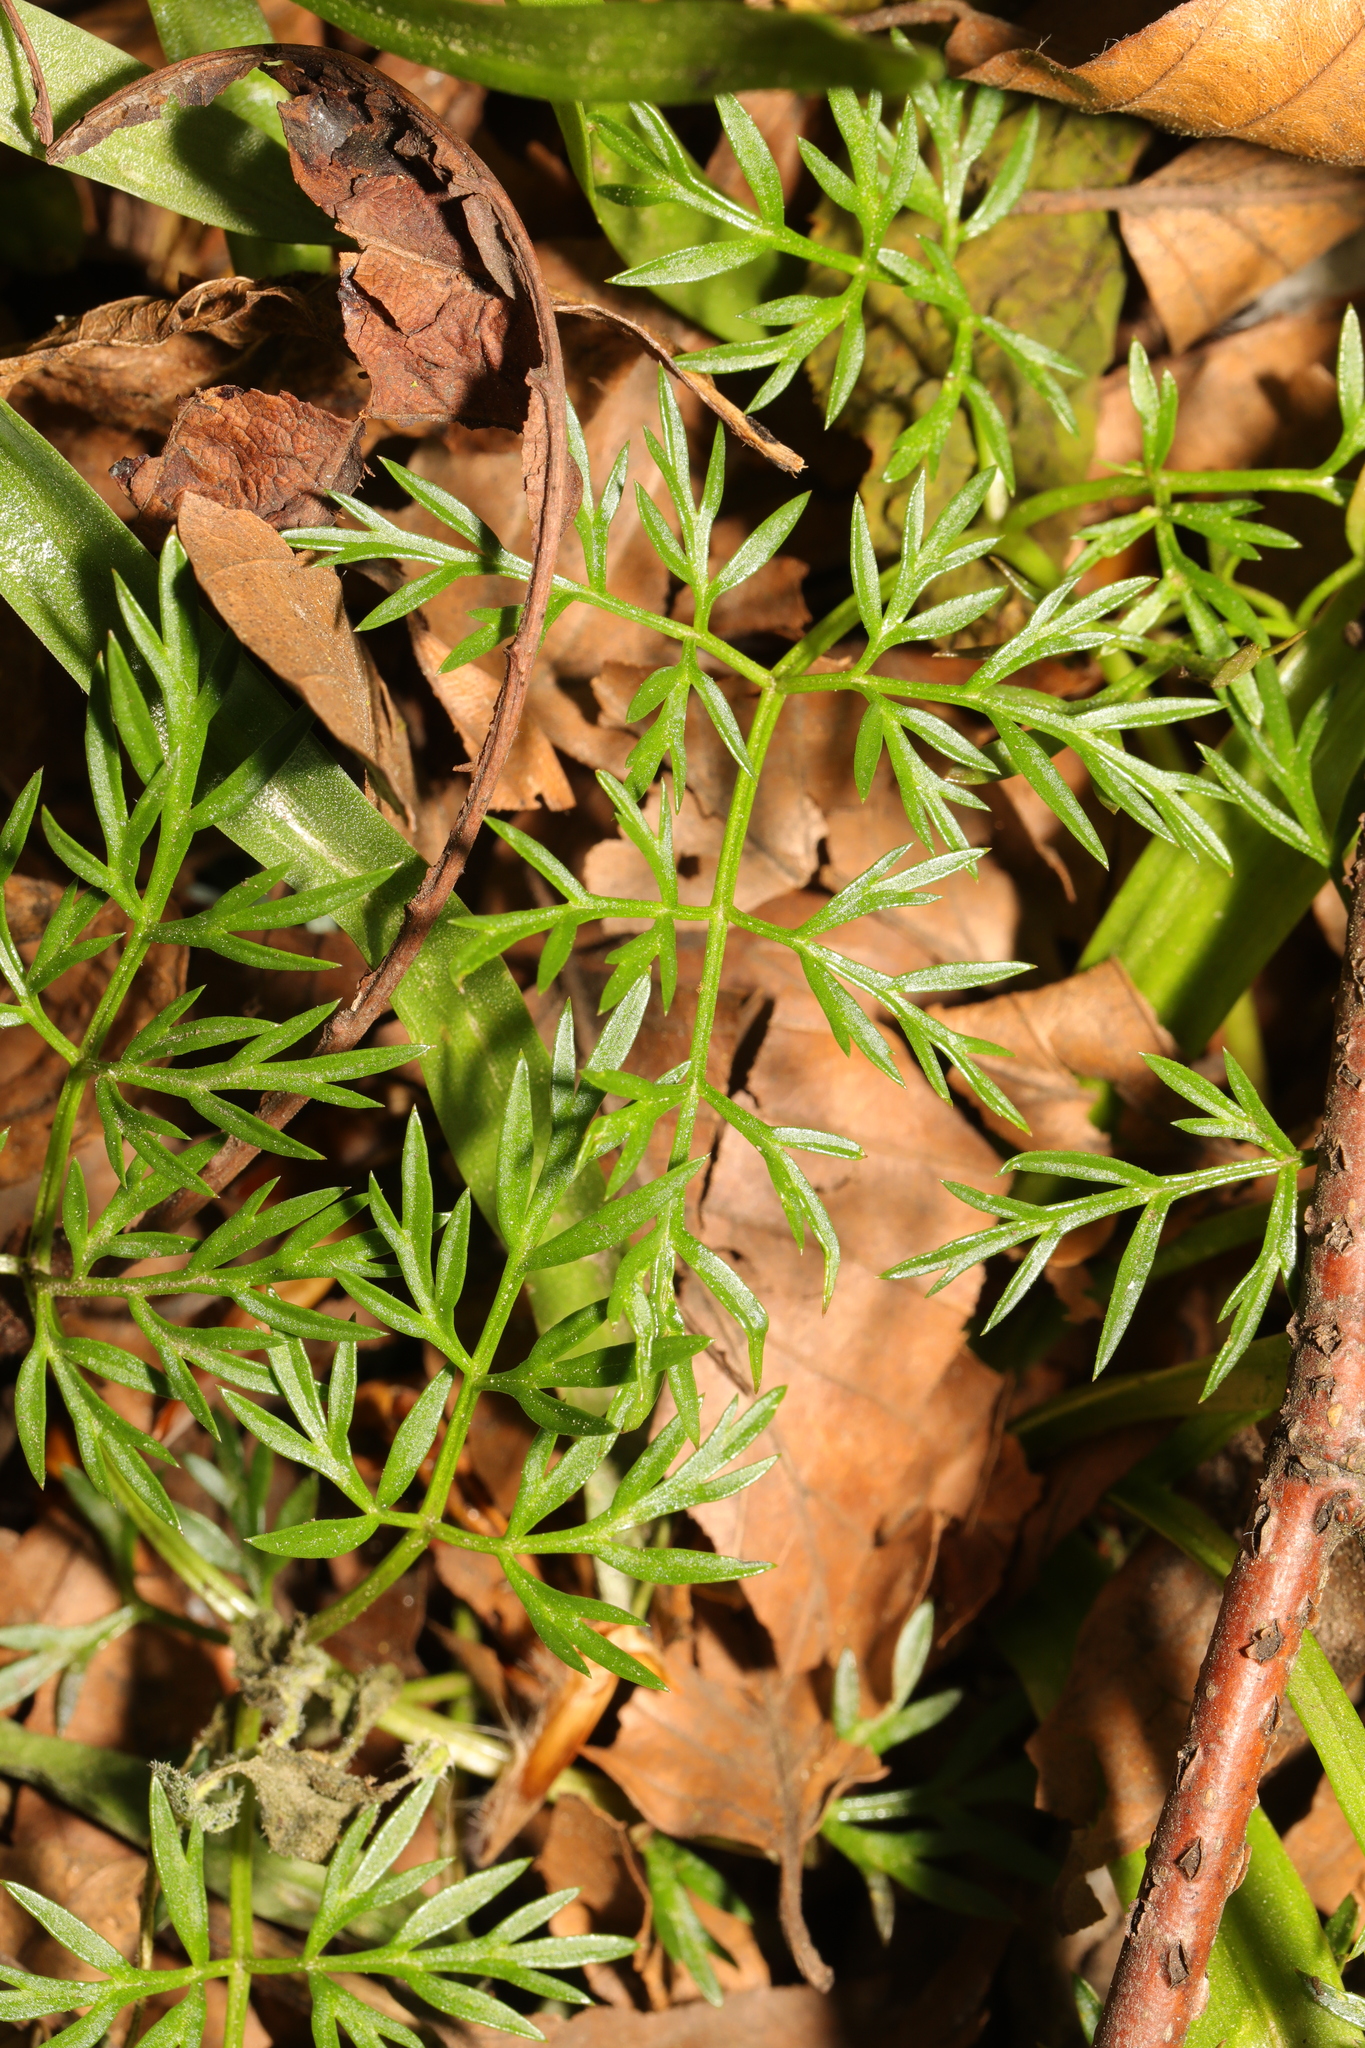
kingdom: Plantae
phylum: Tracheophyta
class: Magnoliopsida
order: Apiales
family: Apiaceae
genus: Conopodium
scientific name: Conopodium majus
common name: Pignut
